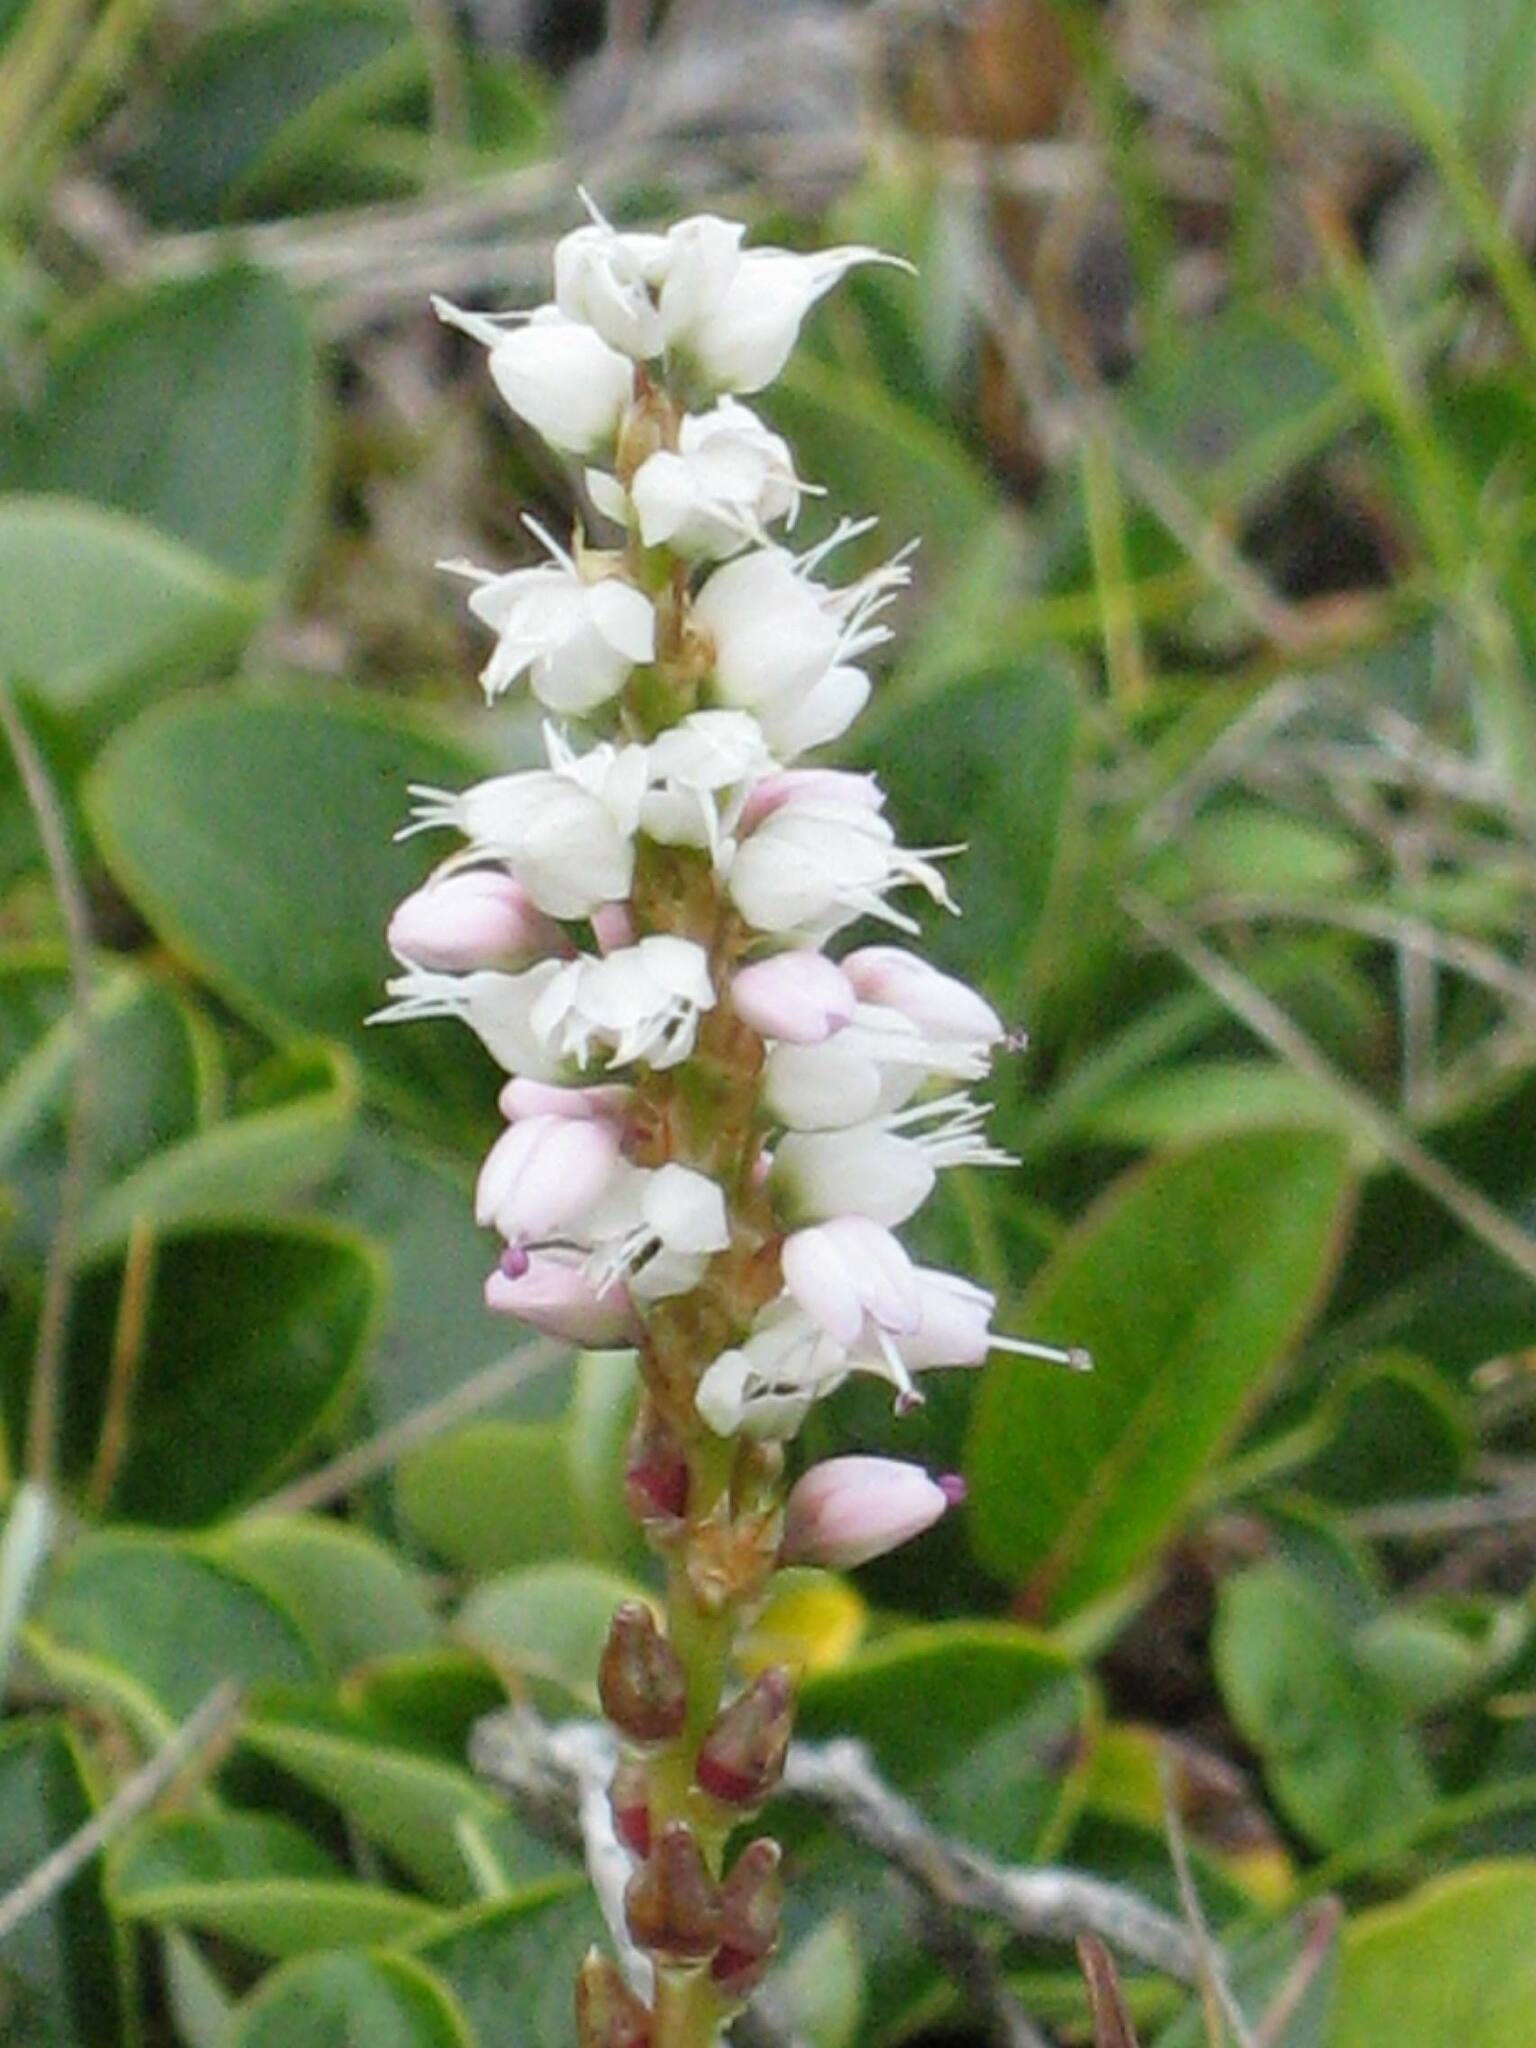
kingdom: Plantae
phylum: Tracheophyta
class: Magnoliopsida
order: Caryophyllales
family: Polygonaceae
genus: Bistorta
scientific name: Bistorta vivipara
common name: Alpine bistort
